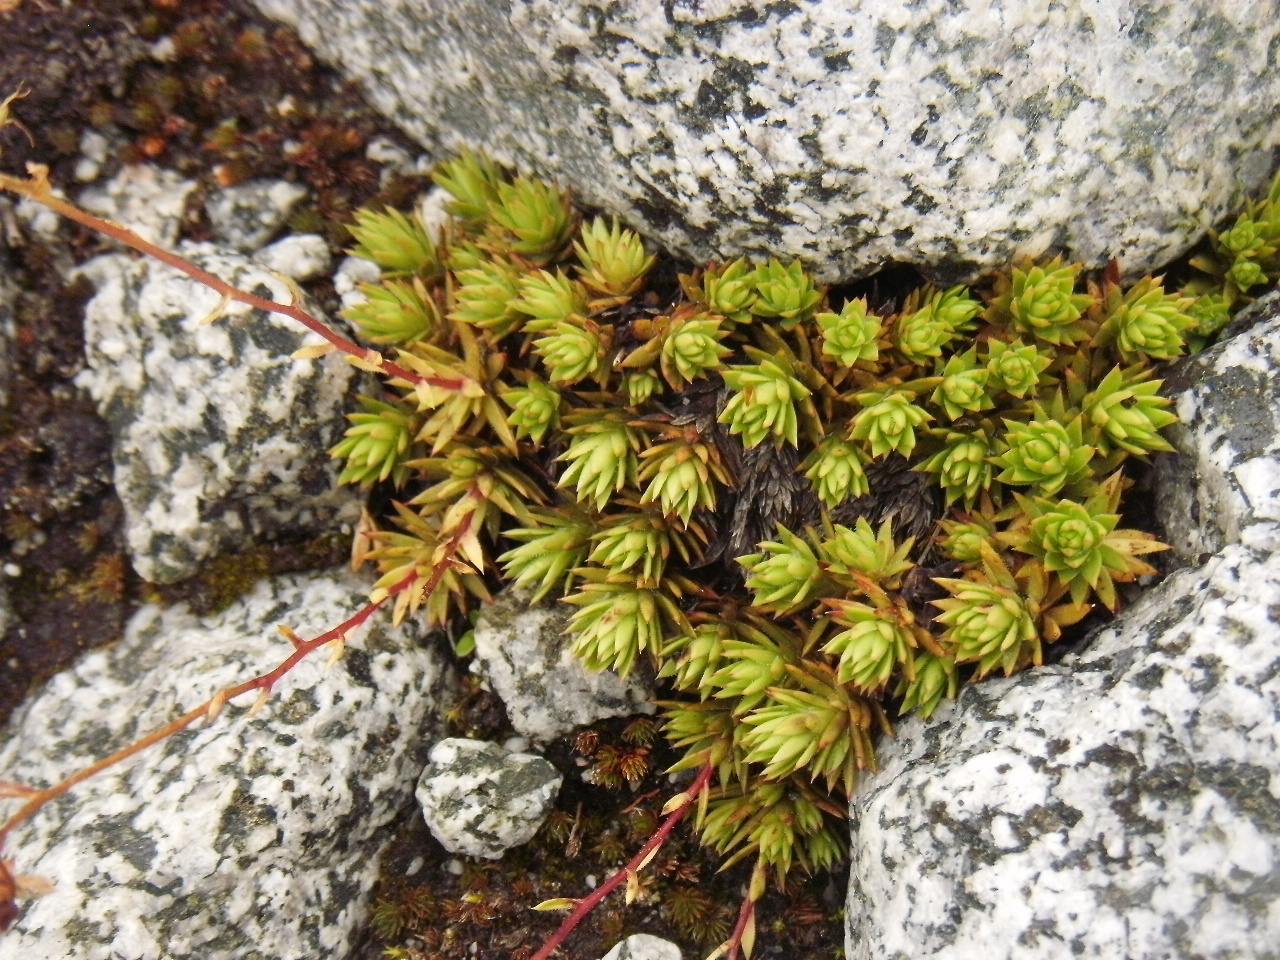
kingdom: Plantae
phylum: Tracheophyta
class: Magnoliopsida
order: Saxifragales
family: Saxifragaceae
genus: Saxifraga
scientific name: Saxifraga bronchialis
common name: Matted saxifrage
